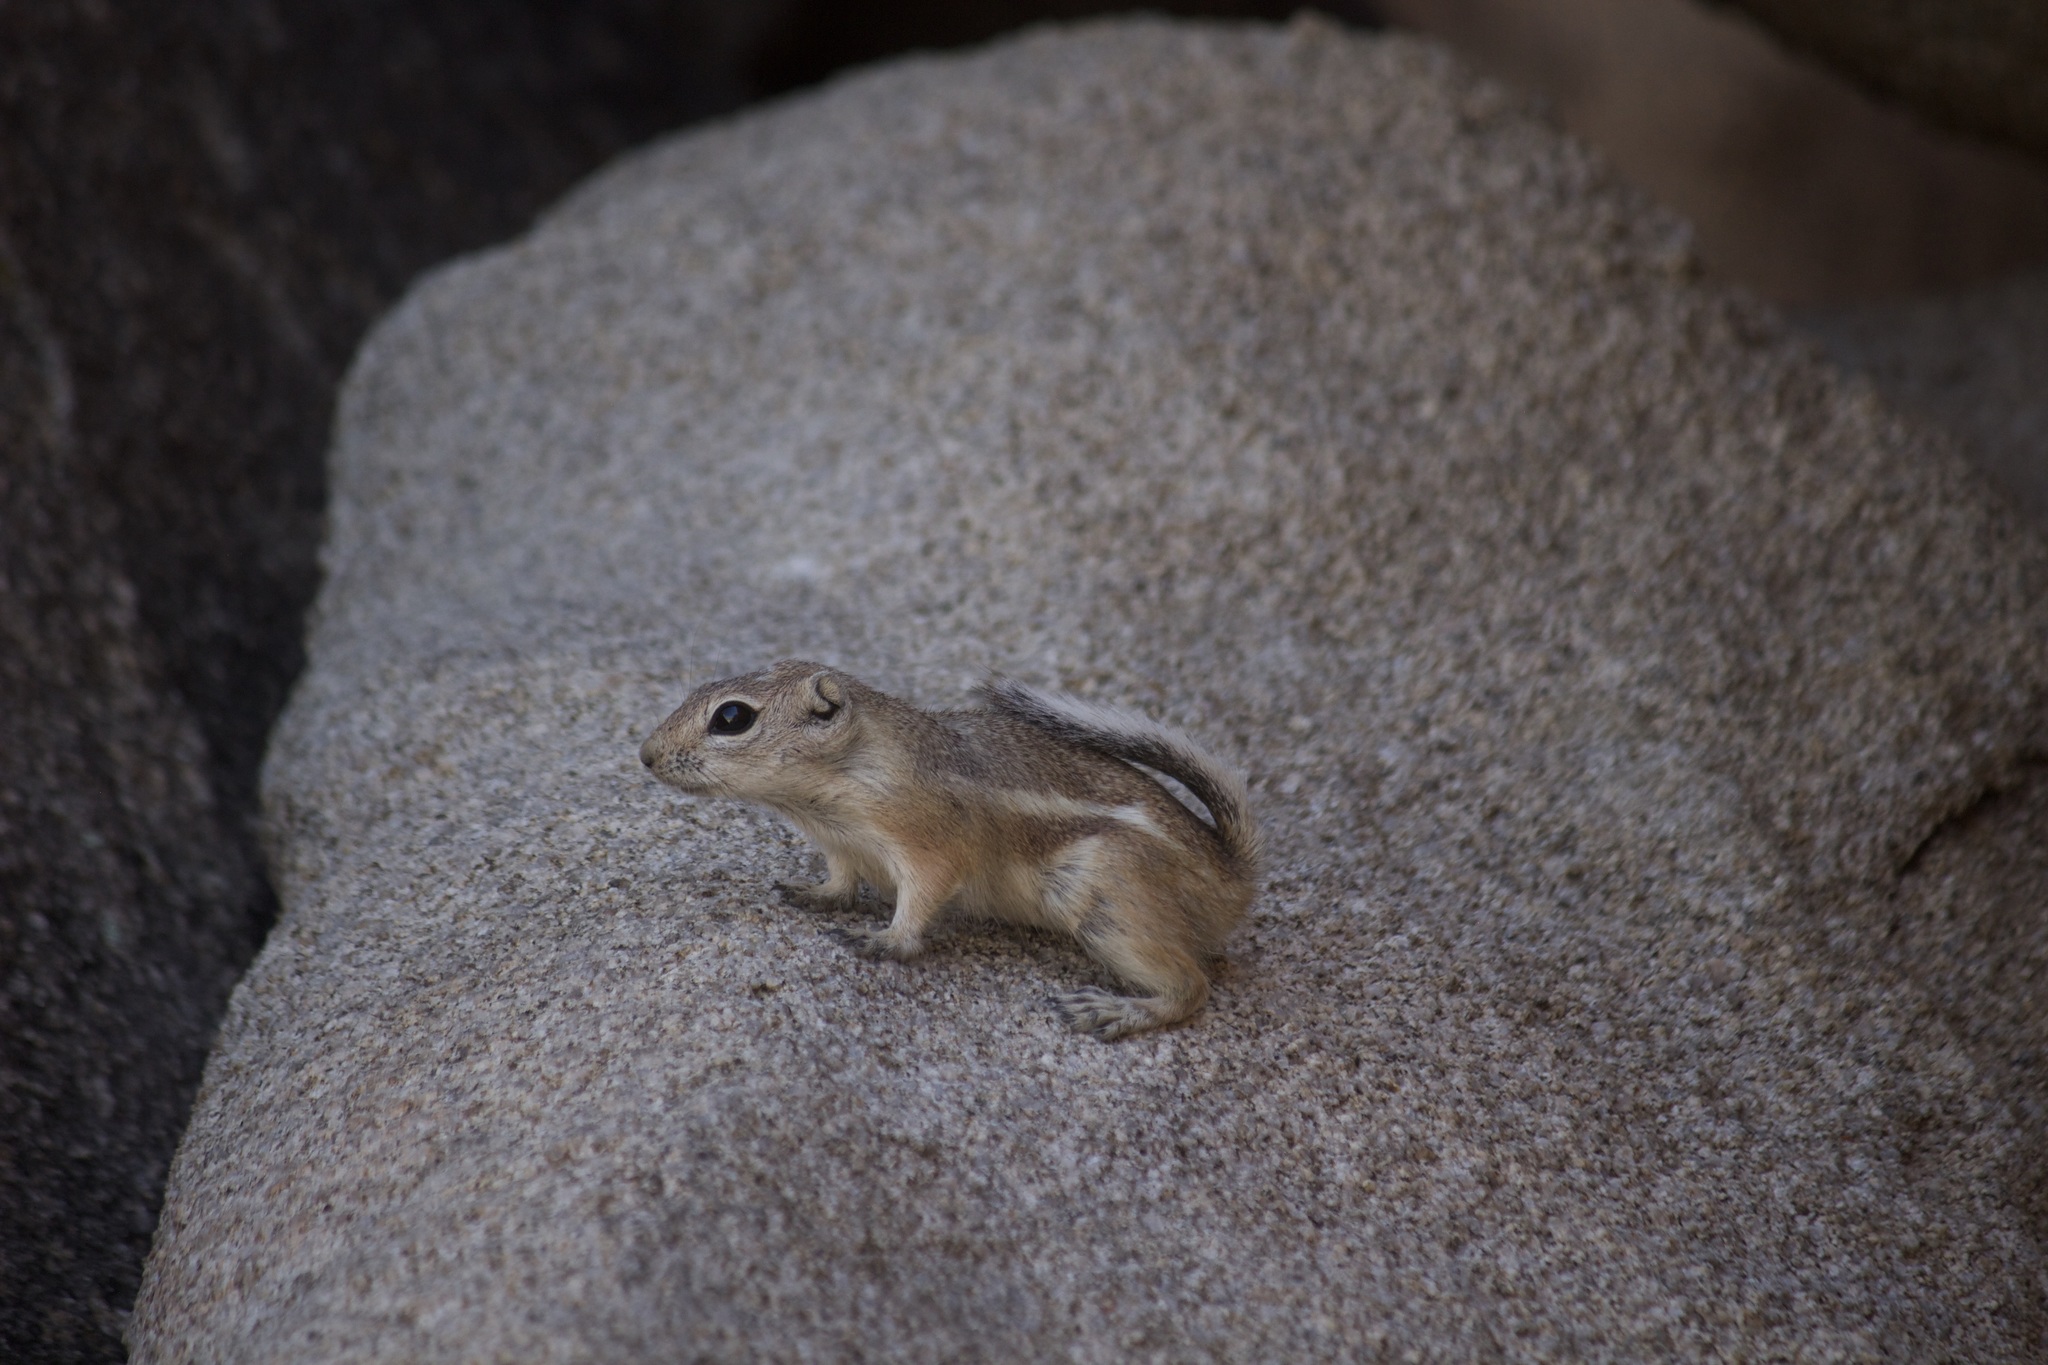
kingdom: Animalia
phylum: Chordata
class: Mammalia
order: Rodentia
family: Sciuridae
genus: Ammospermophilus
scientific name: Ammospermophilus leucurus
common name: White-tailed antelope squirrel
